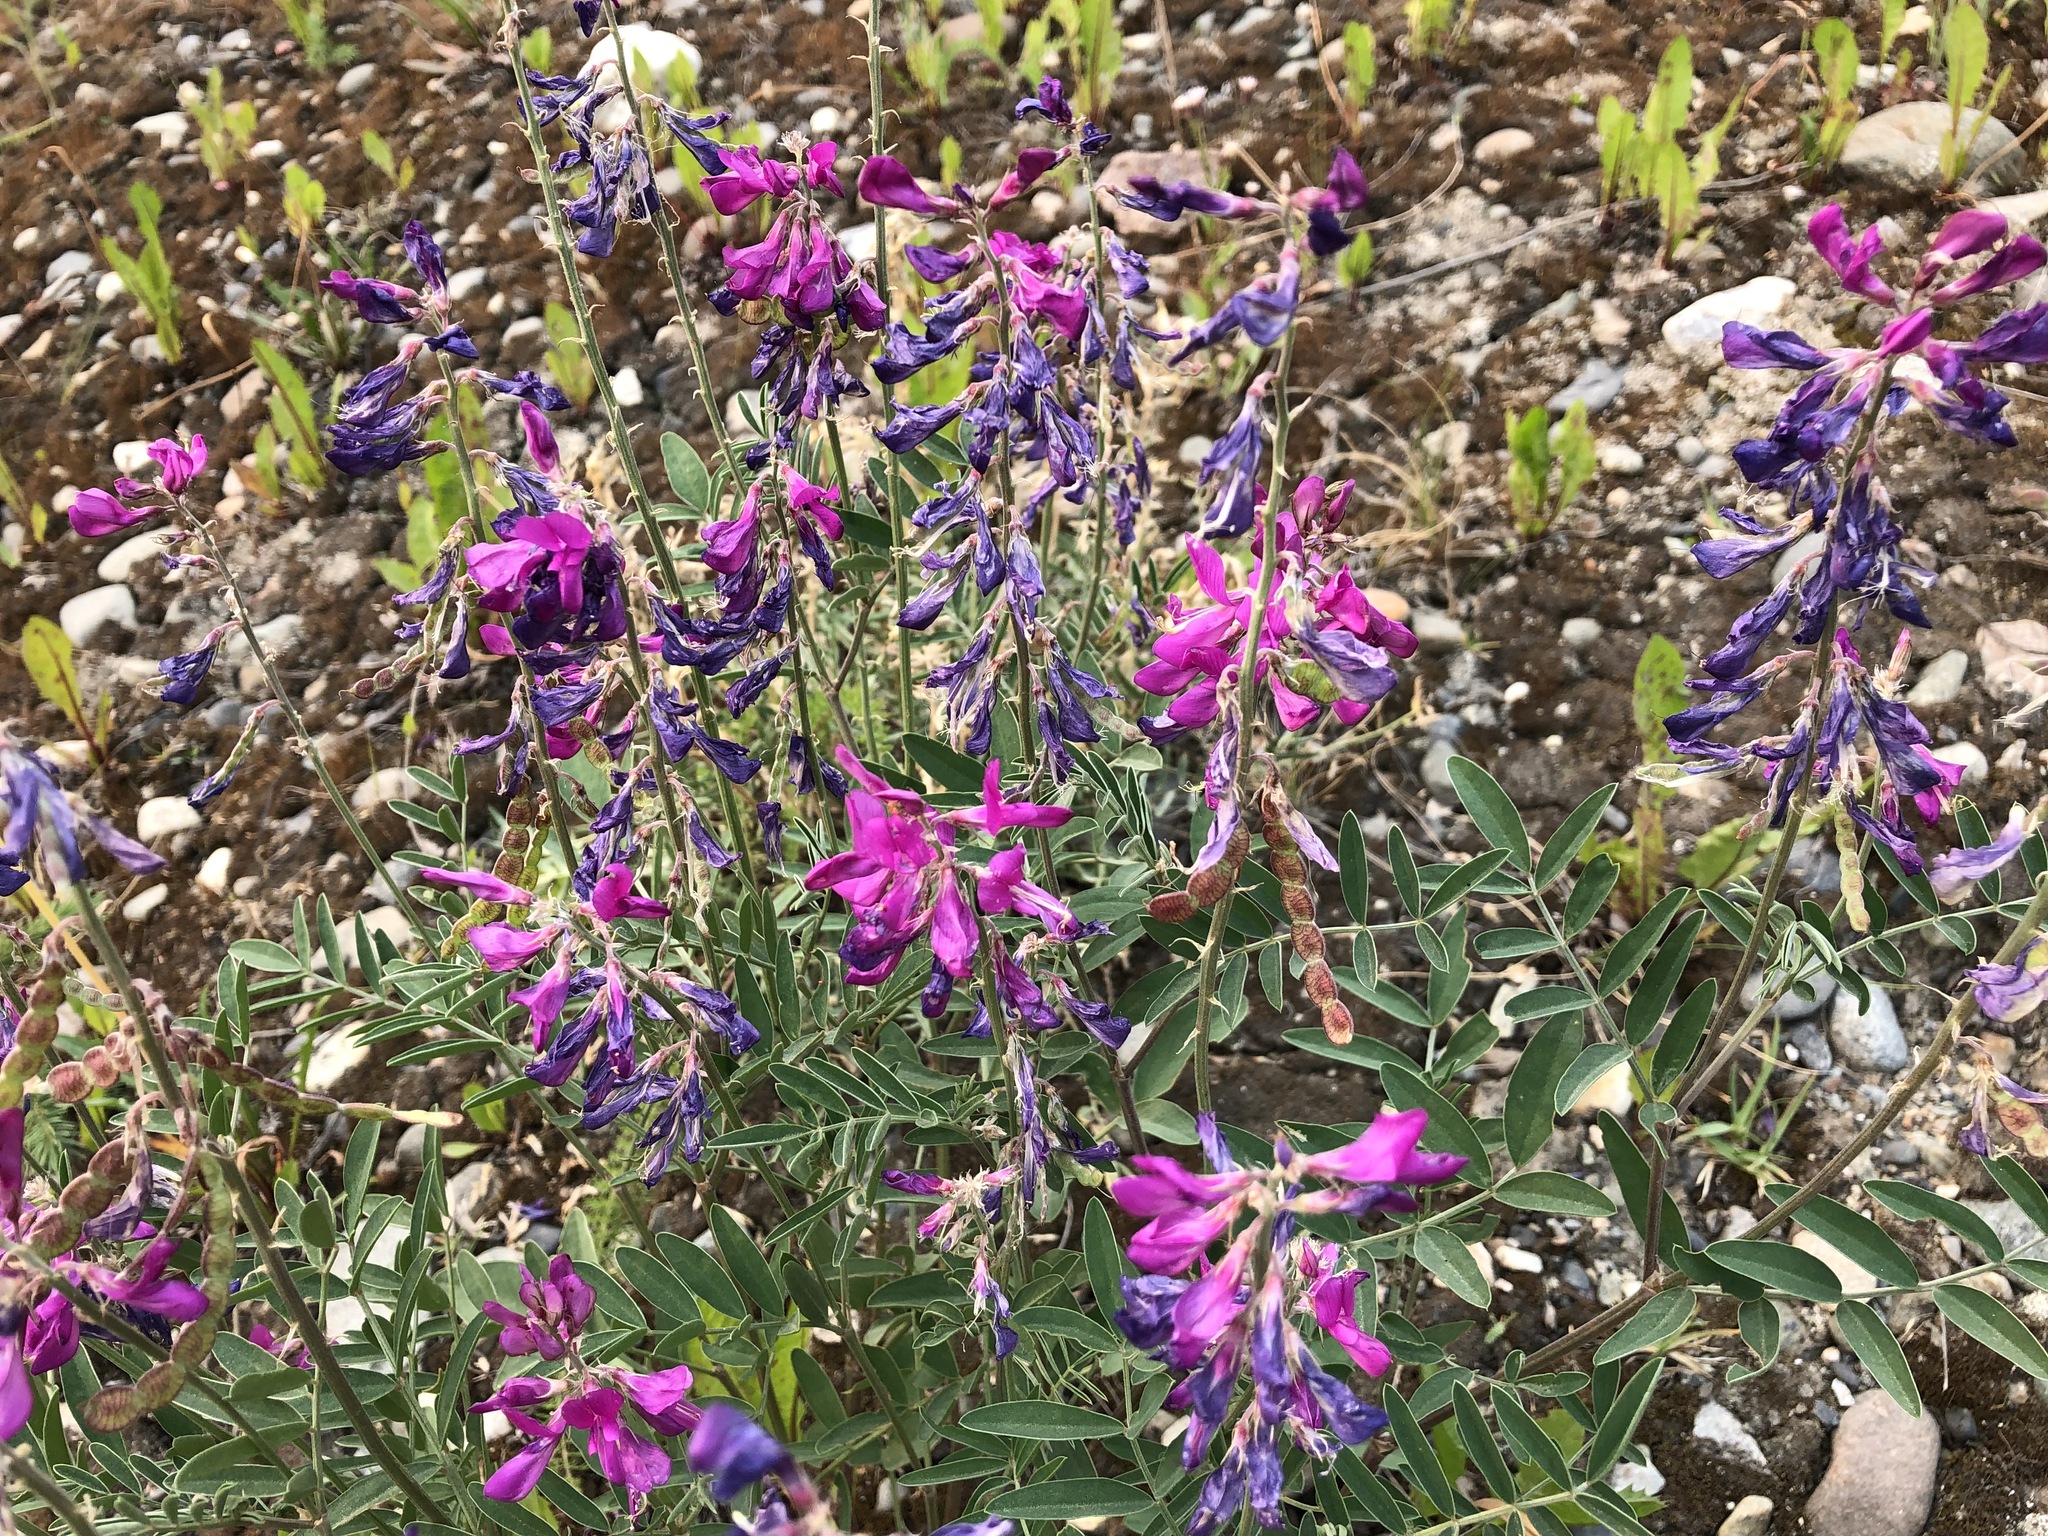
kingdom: Plantae
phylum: Tracheophyta
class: Magnoliopsida
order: Fabales
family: Fabaceae
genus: Hedysarum
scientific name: Hedysarum boreale
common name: Northern sweet-vetch
